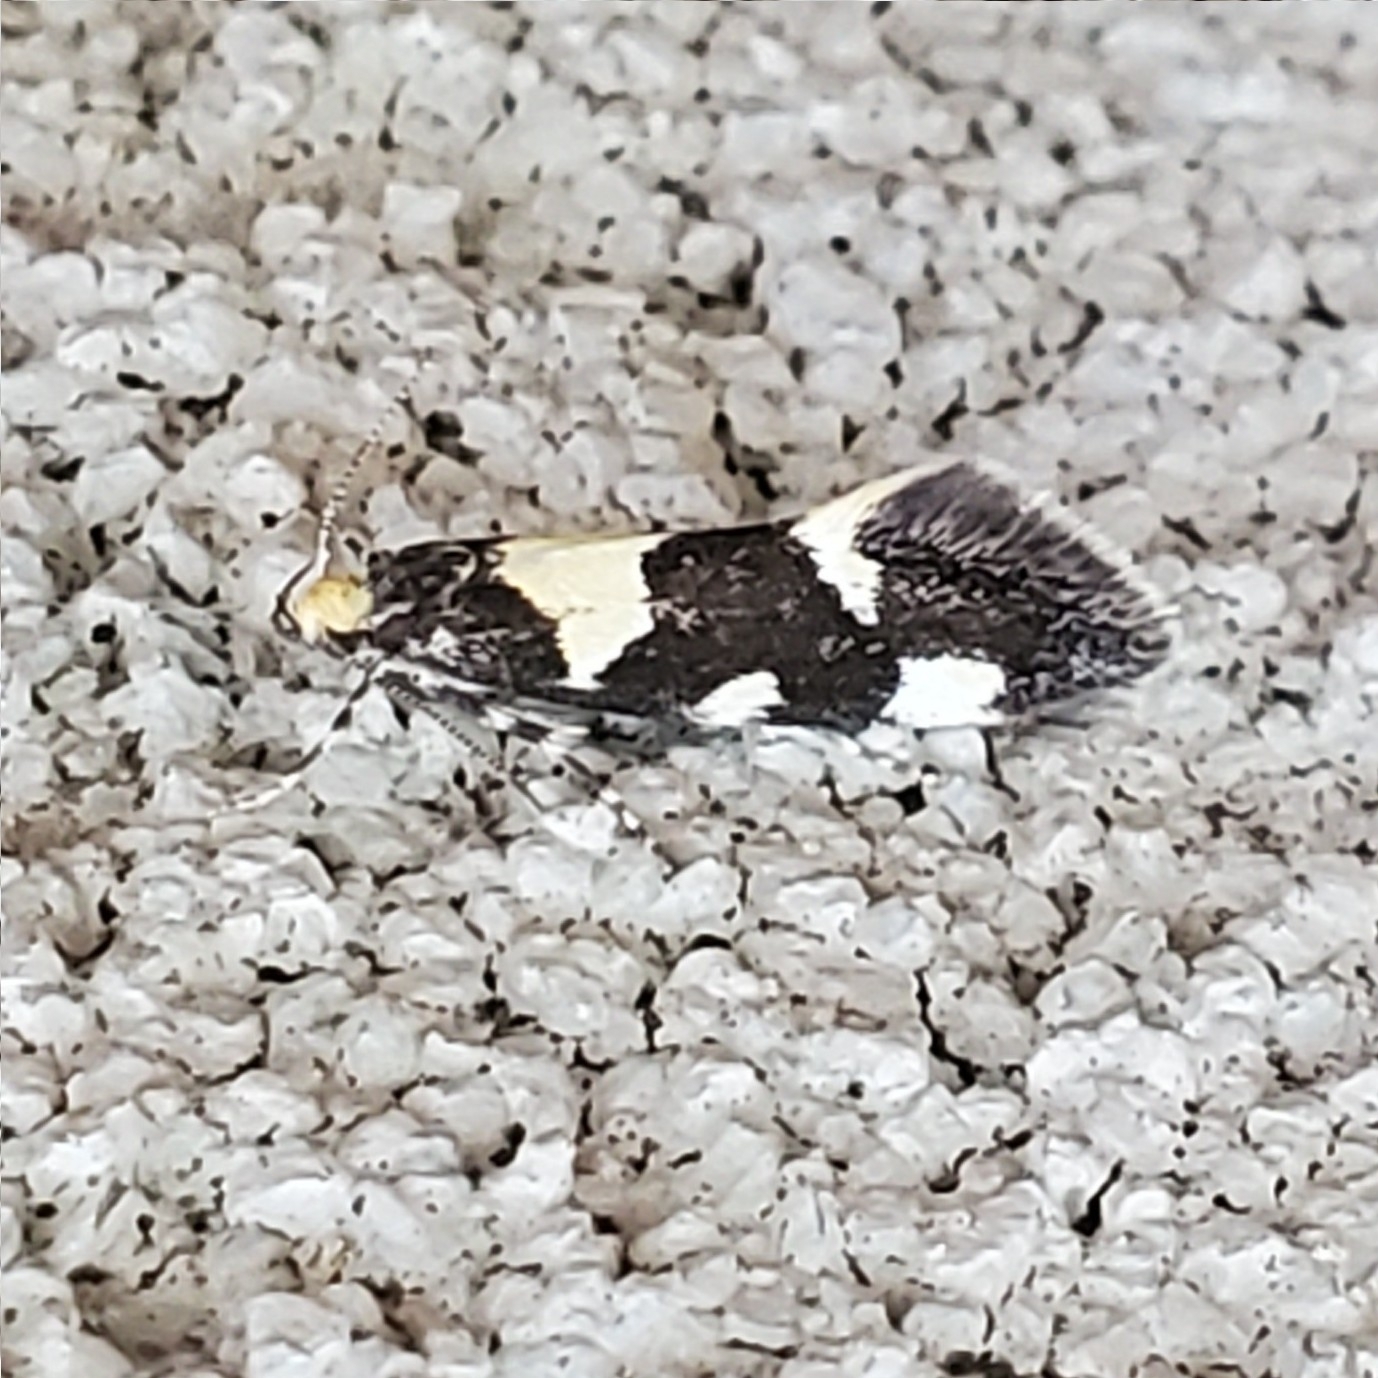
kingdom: Animalia
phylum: Arthropoda
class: Insecta
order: Lepidoptera
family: Oecophoridae
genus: Brymblia
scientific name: Brymblia quadrimaculella
